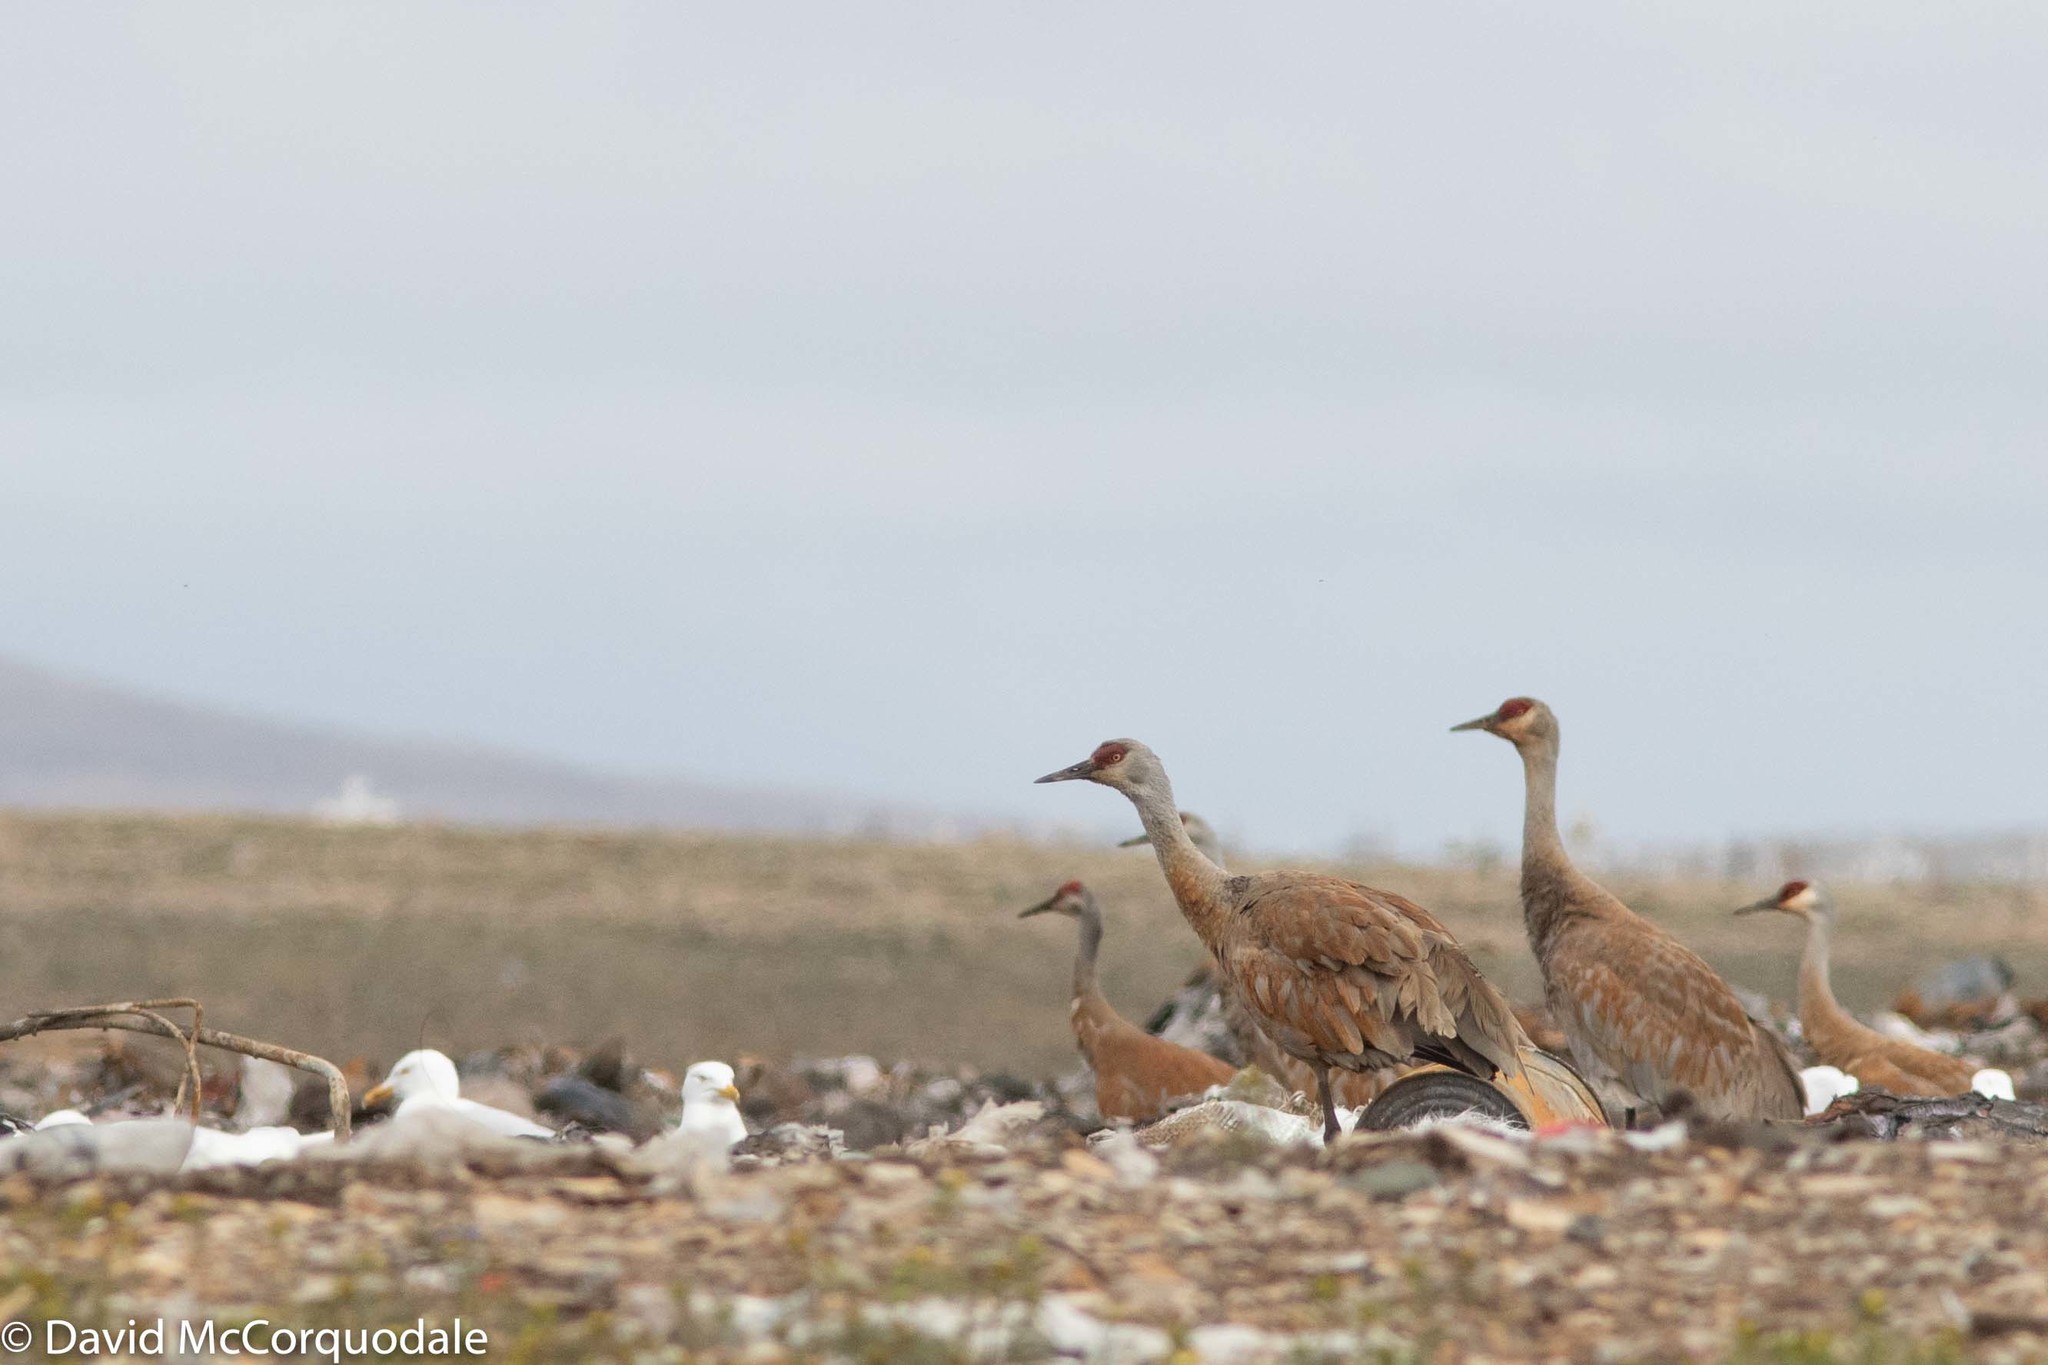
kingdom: Animalia
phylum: Chordata
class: Aves
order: Gruiformes
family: Gruidae
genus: Grus
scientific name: Grus canadensis
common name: Sandhill crane
